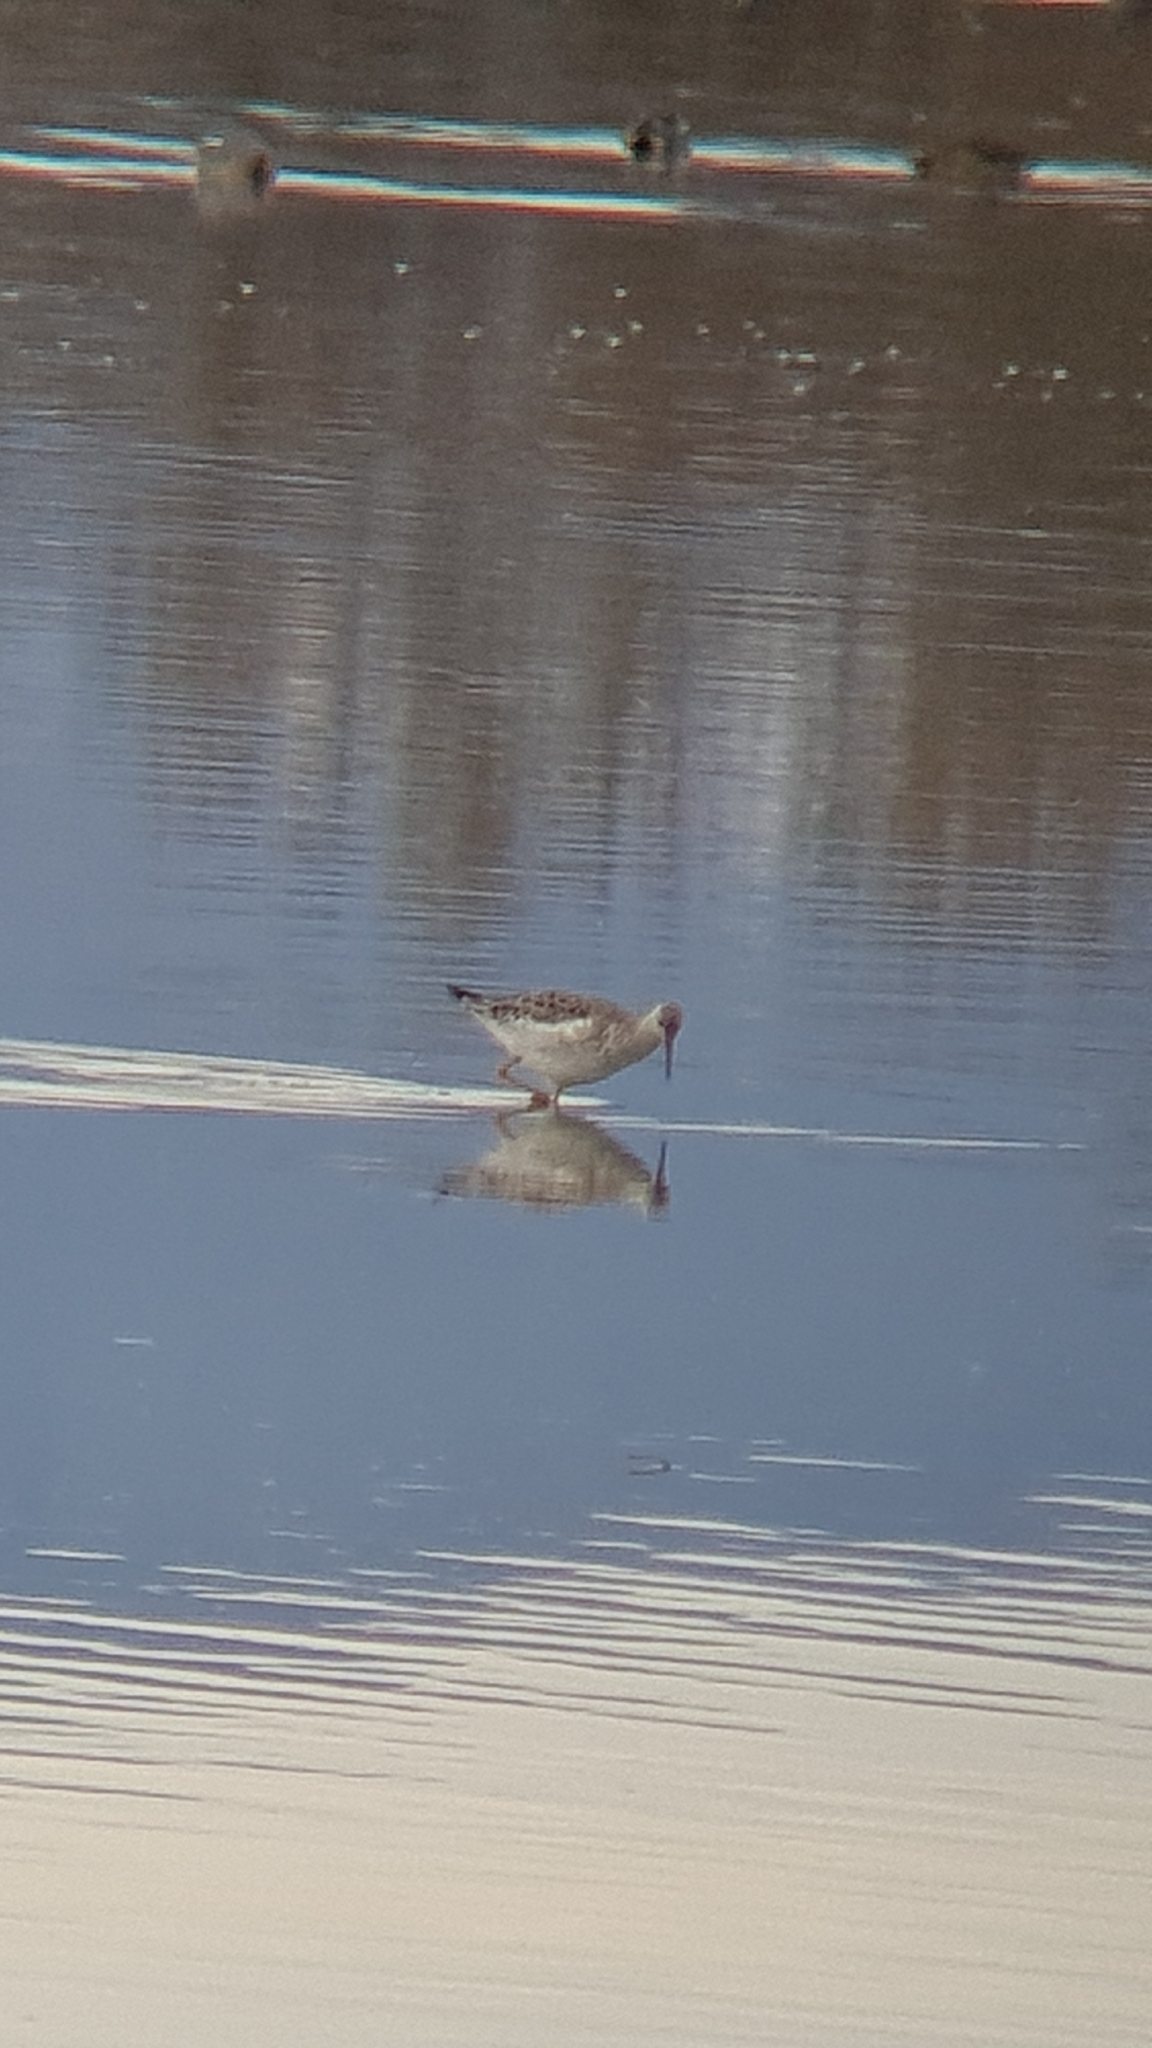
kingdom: Animalia
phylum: Chordata
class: Aves
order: Charadriiformes
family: Scolopacidae
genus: Calidris
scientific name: Calidris pugnax
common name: Ruff
